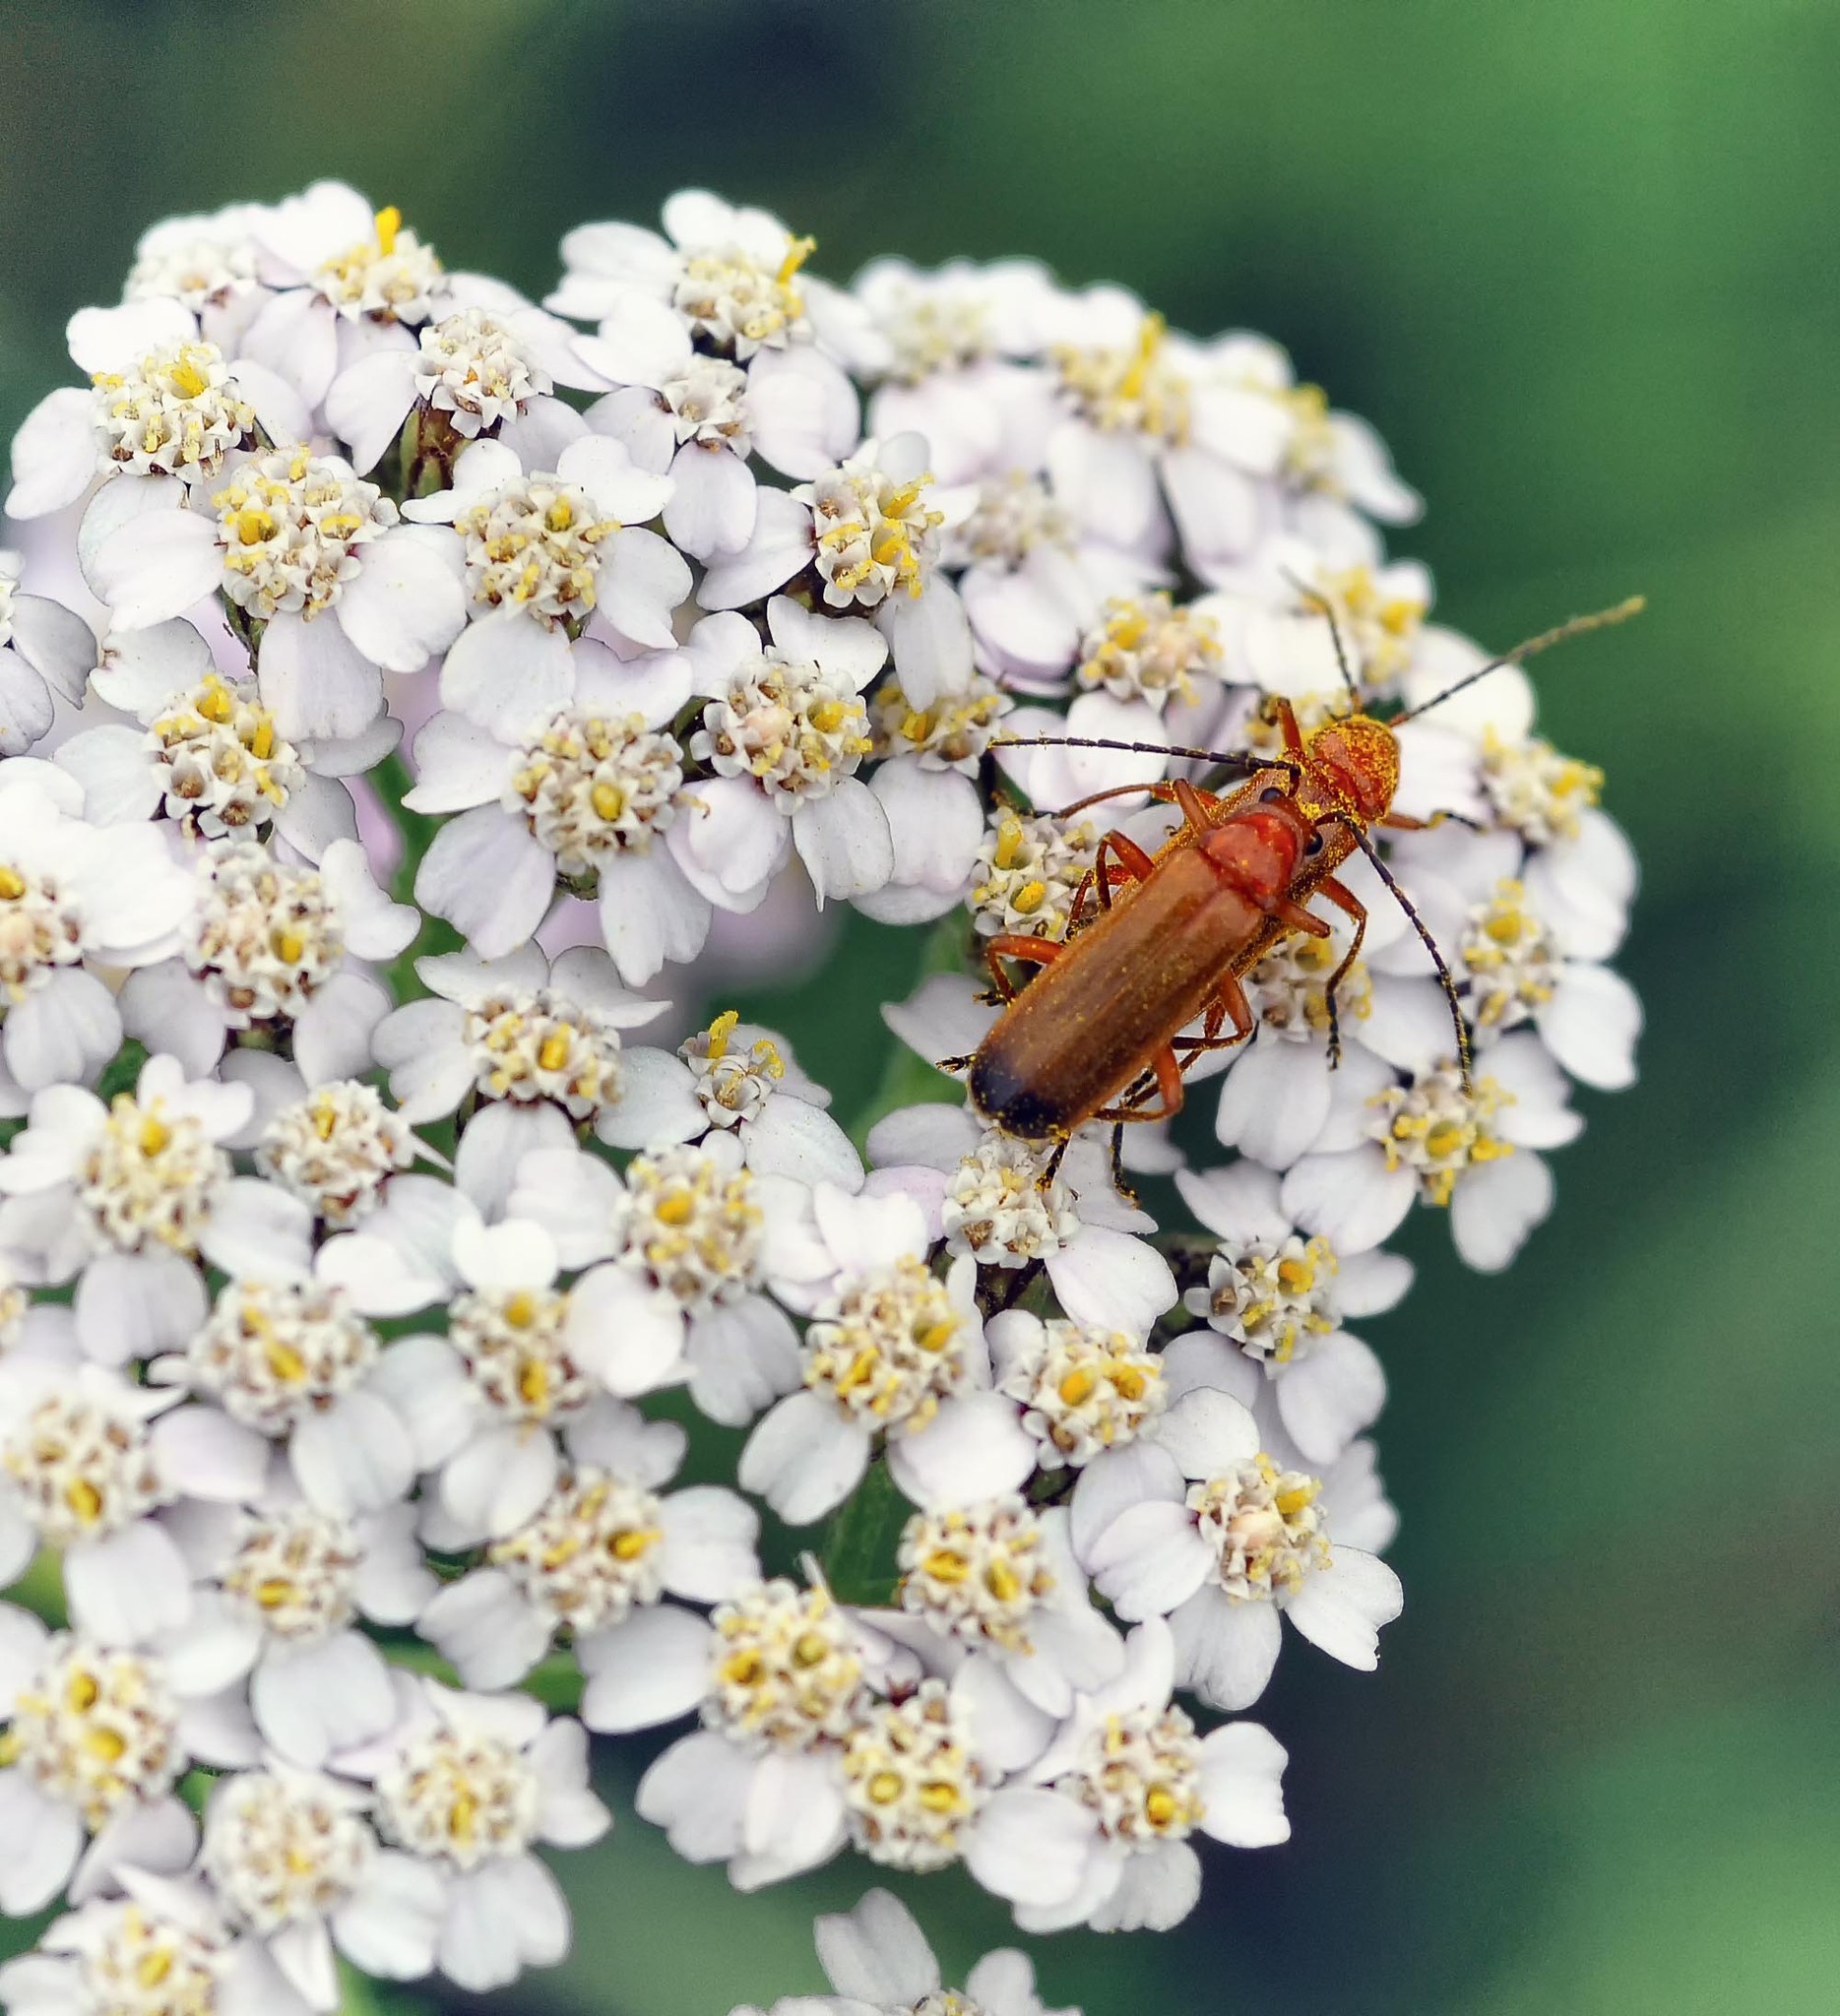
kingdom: Animalia
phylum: Arthropoda
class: Insecta
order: Coleoptera
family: Cantharidae
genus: Rhagonycha
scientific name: Rhagonycha fulva
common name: Common red soldier beetle
